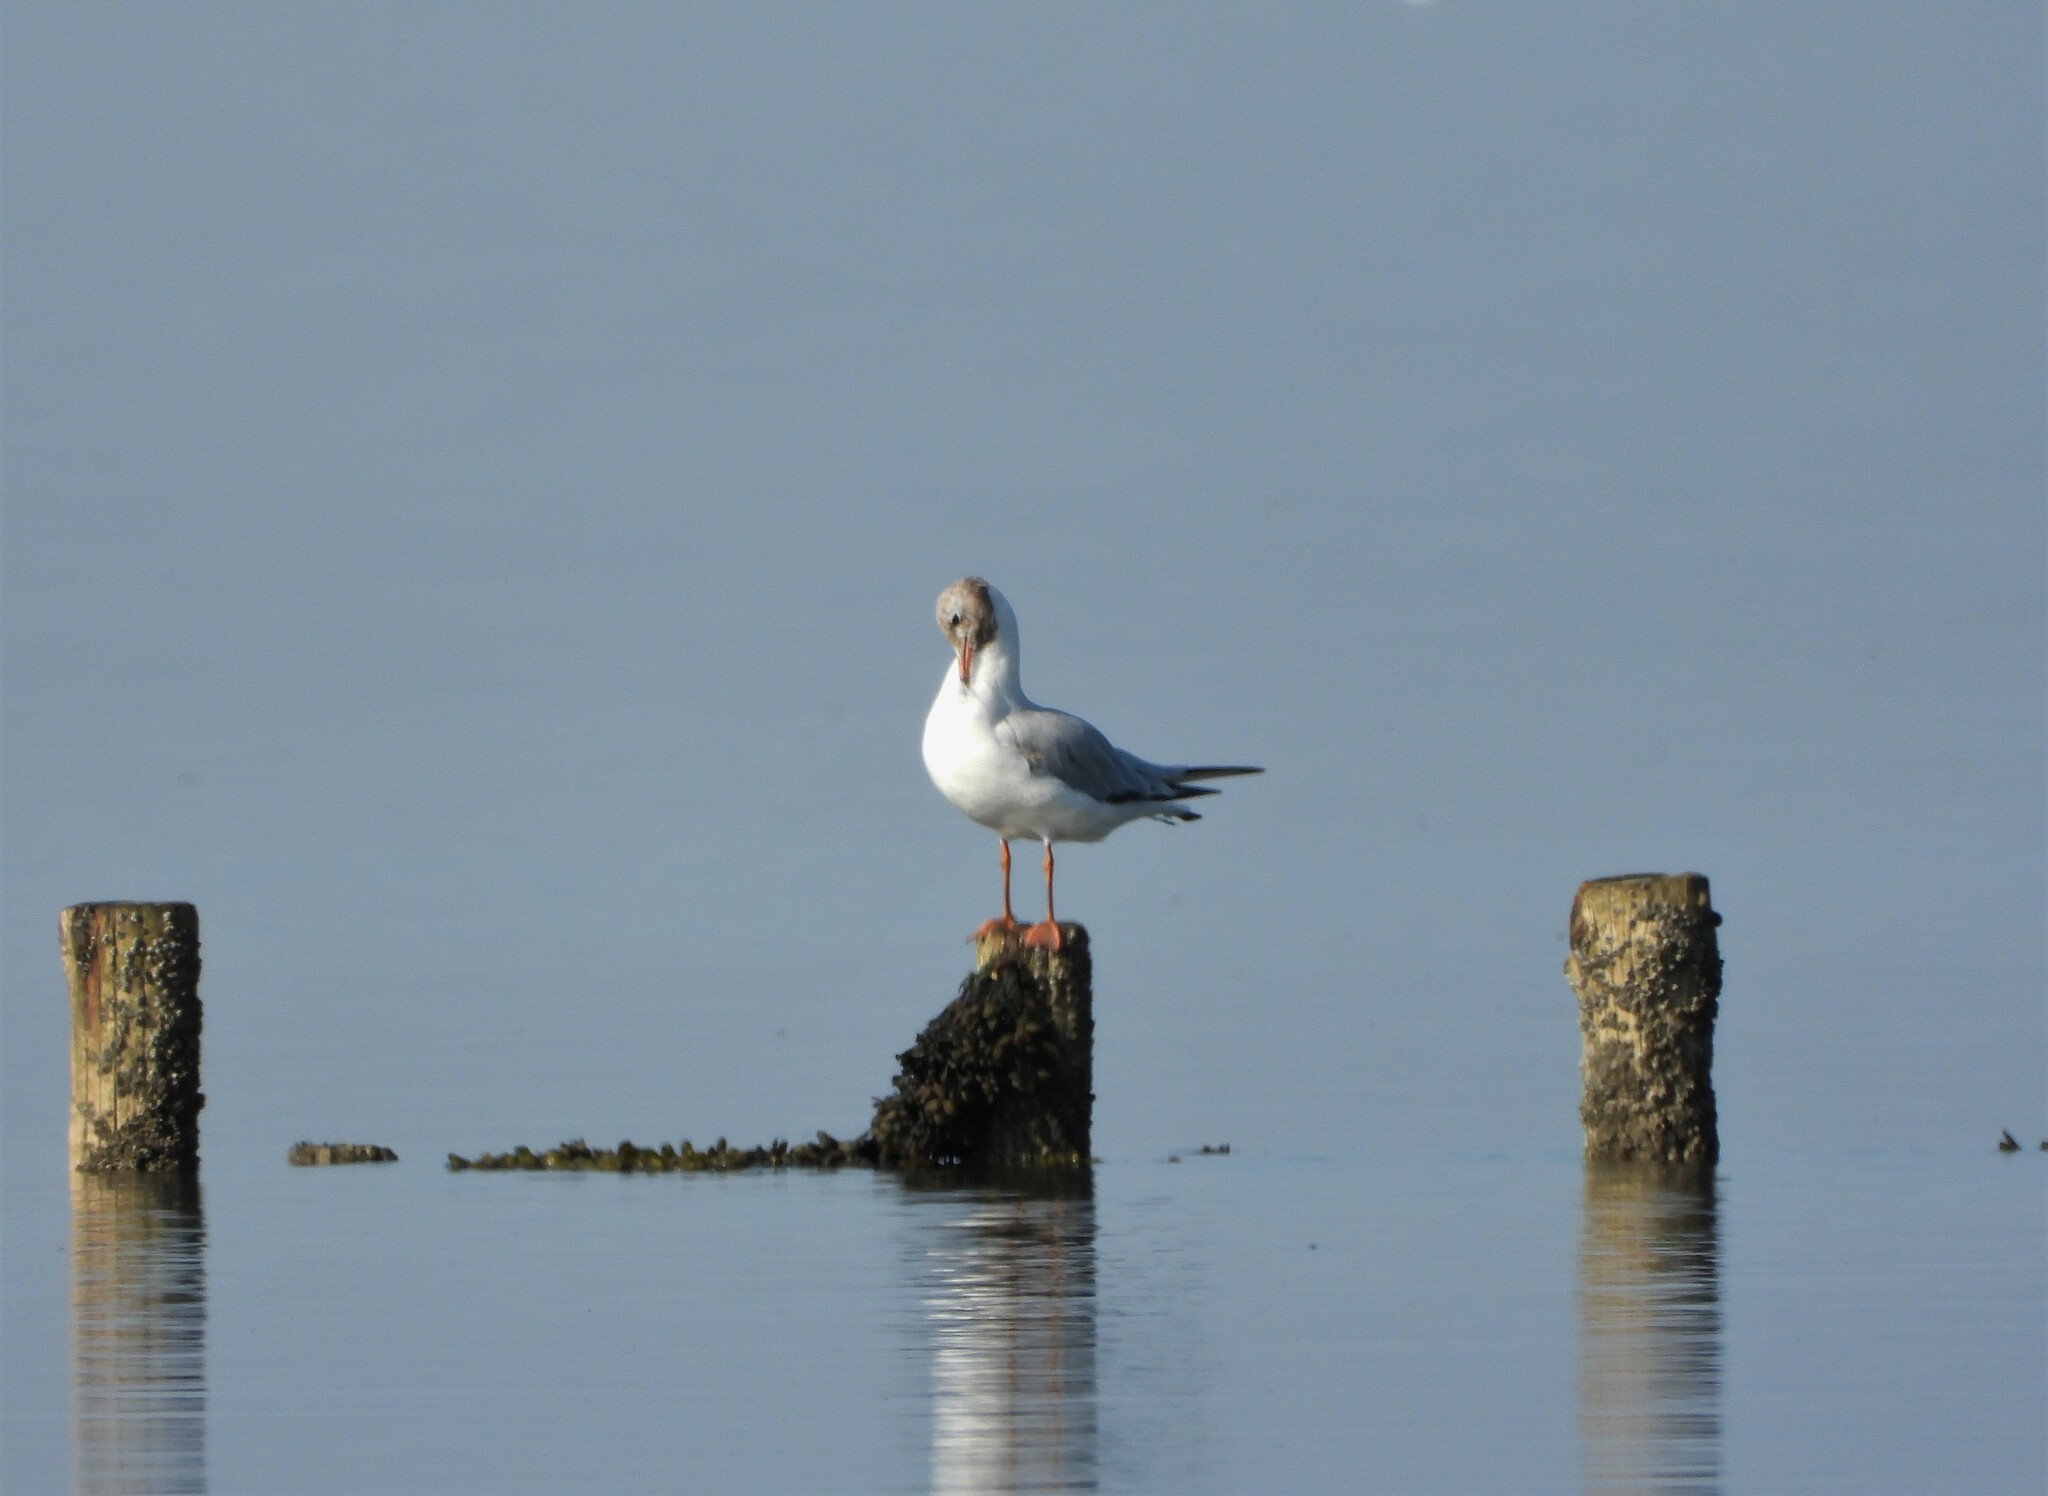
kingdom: Animalia
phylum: Chordata
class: Aves
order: Charadriiformes
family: Laridae
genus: Chroicocephalus
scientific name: Chroicocephalus ridibundus
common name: Black-headed gull
